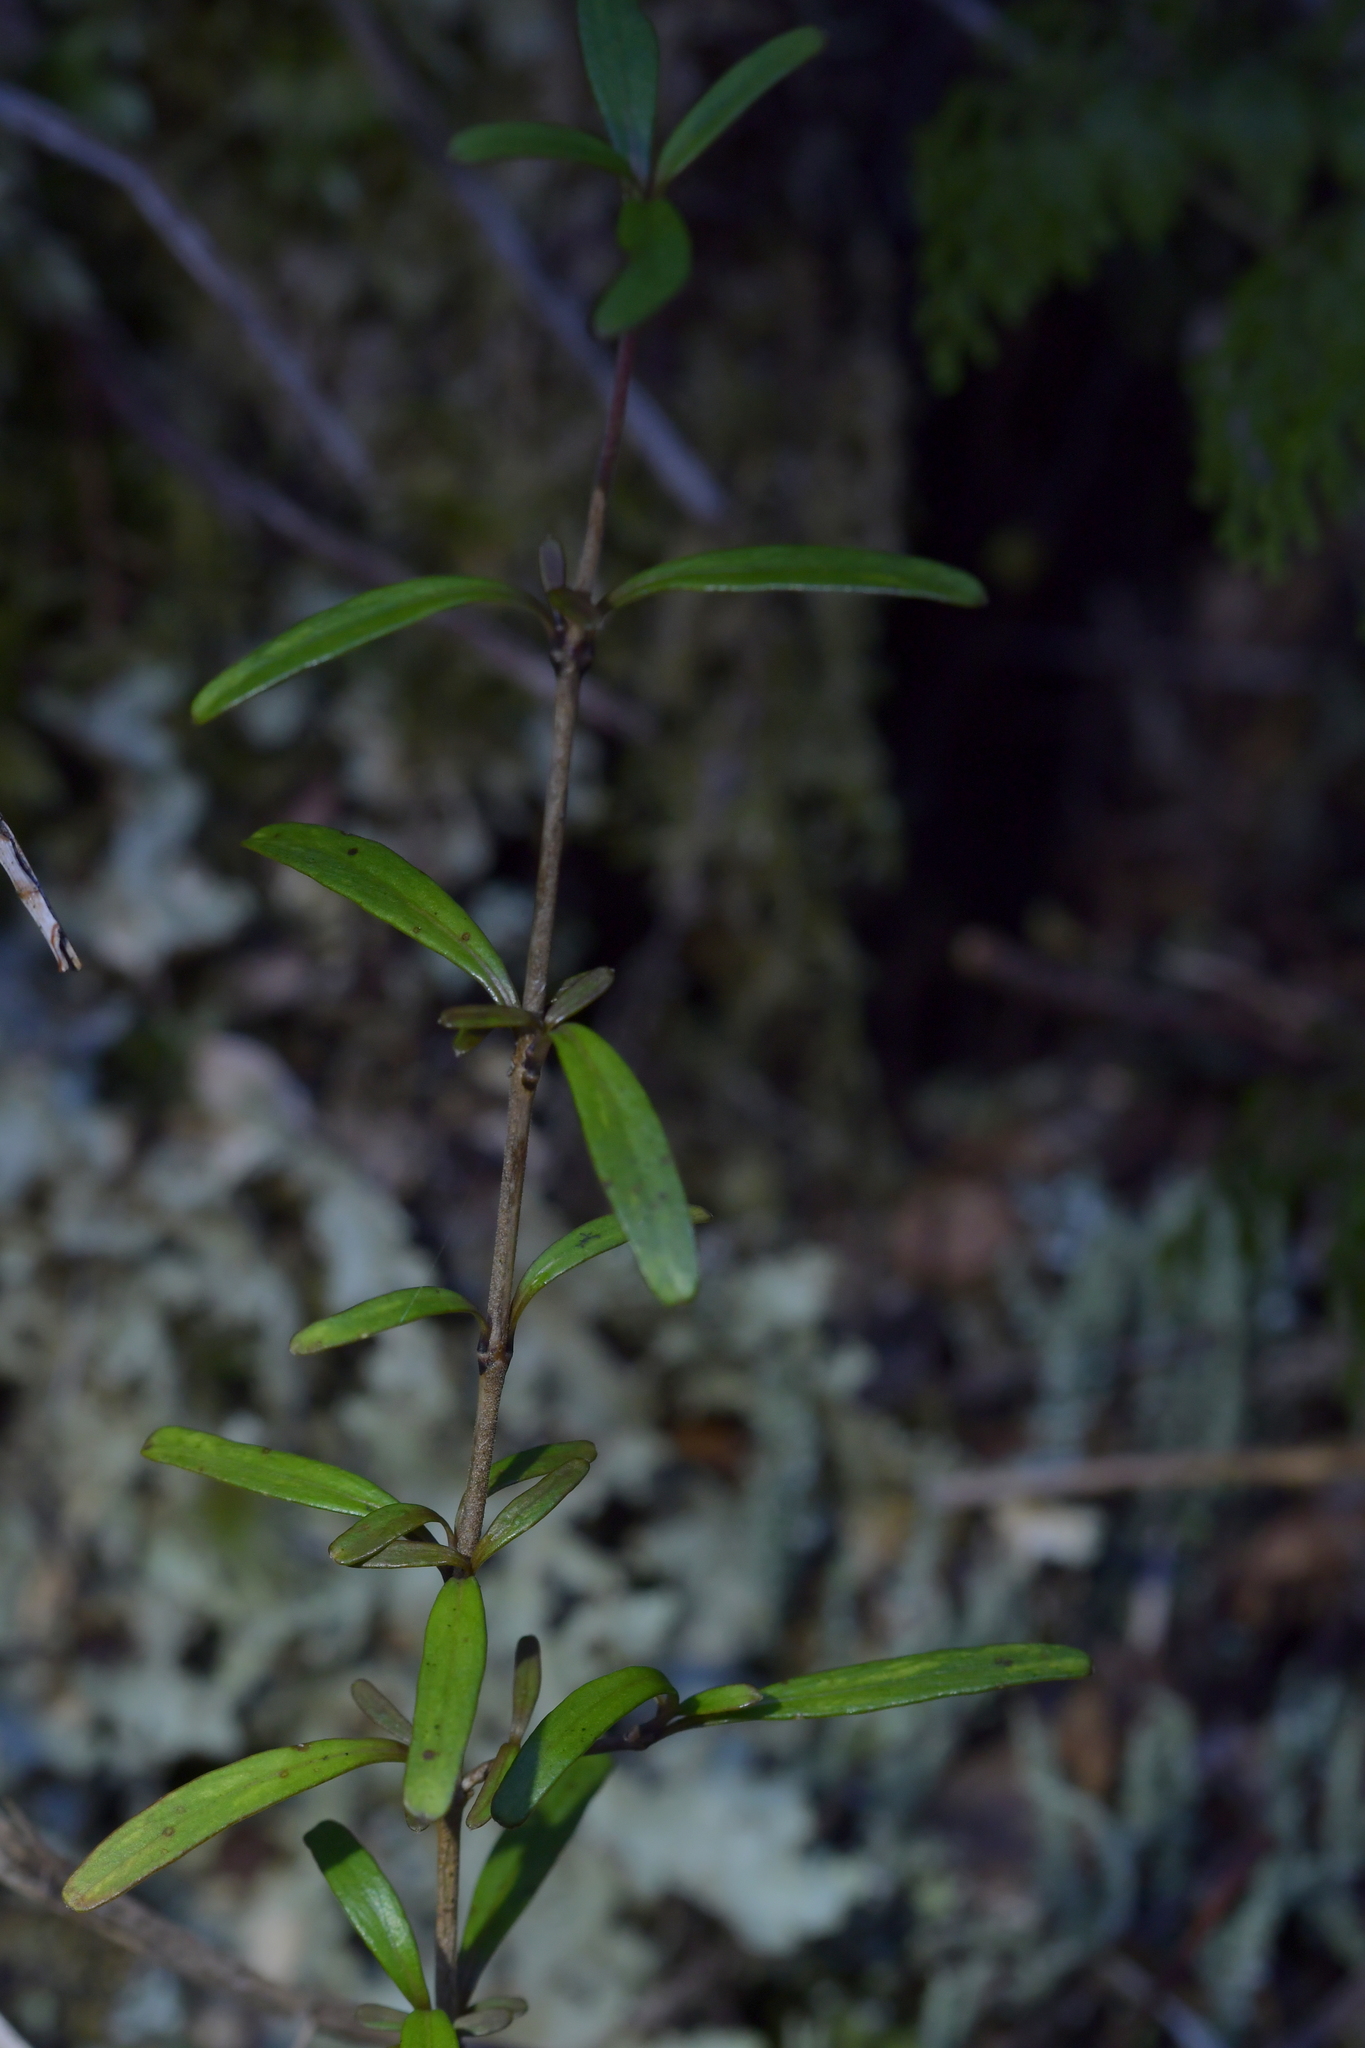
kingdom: Plantae
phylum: Tracheophyta
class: Magnoliopsida
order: Gentianales
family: Rubiaceae
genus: Coprosma
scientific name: Coprosma colensoi
